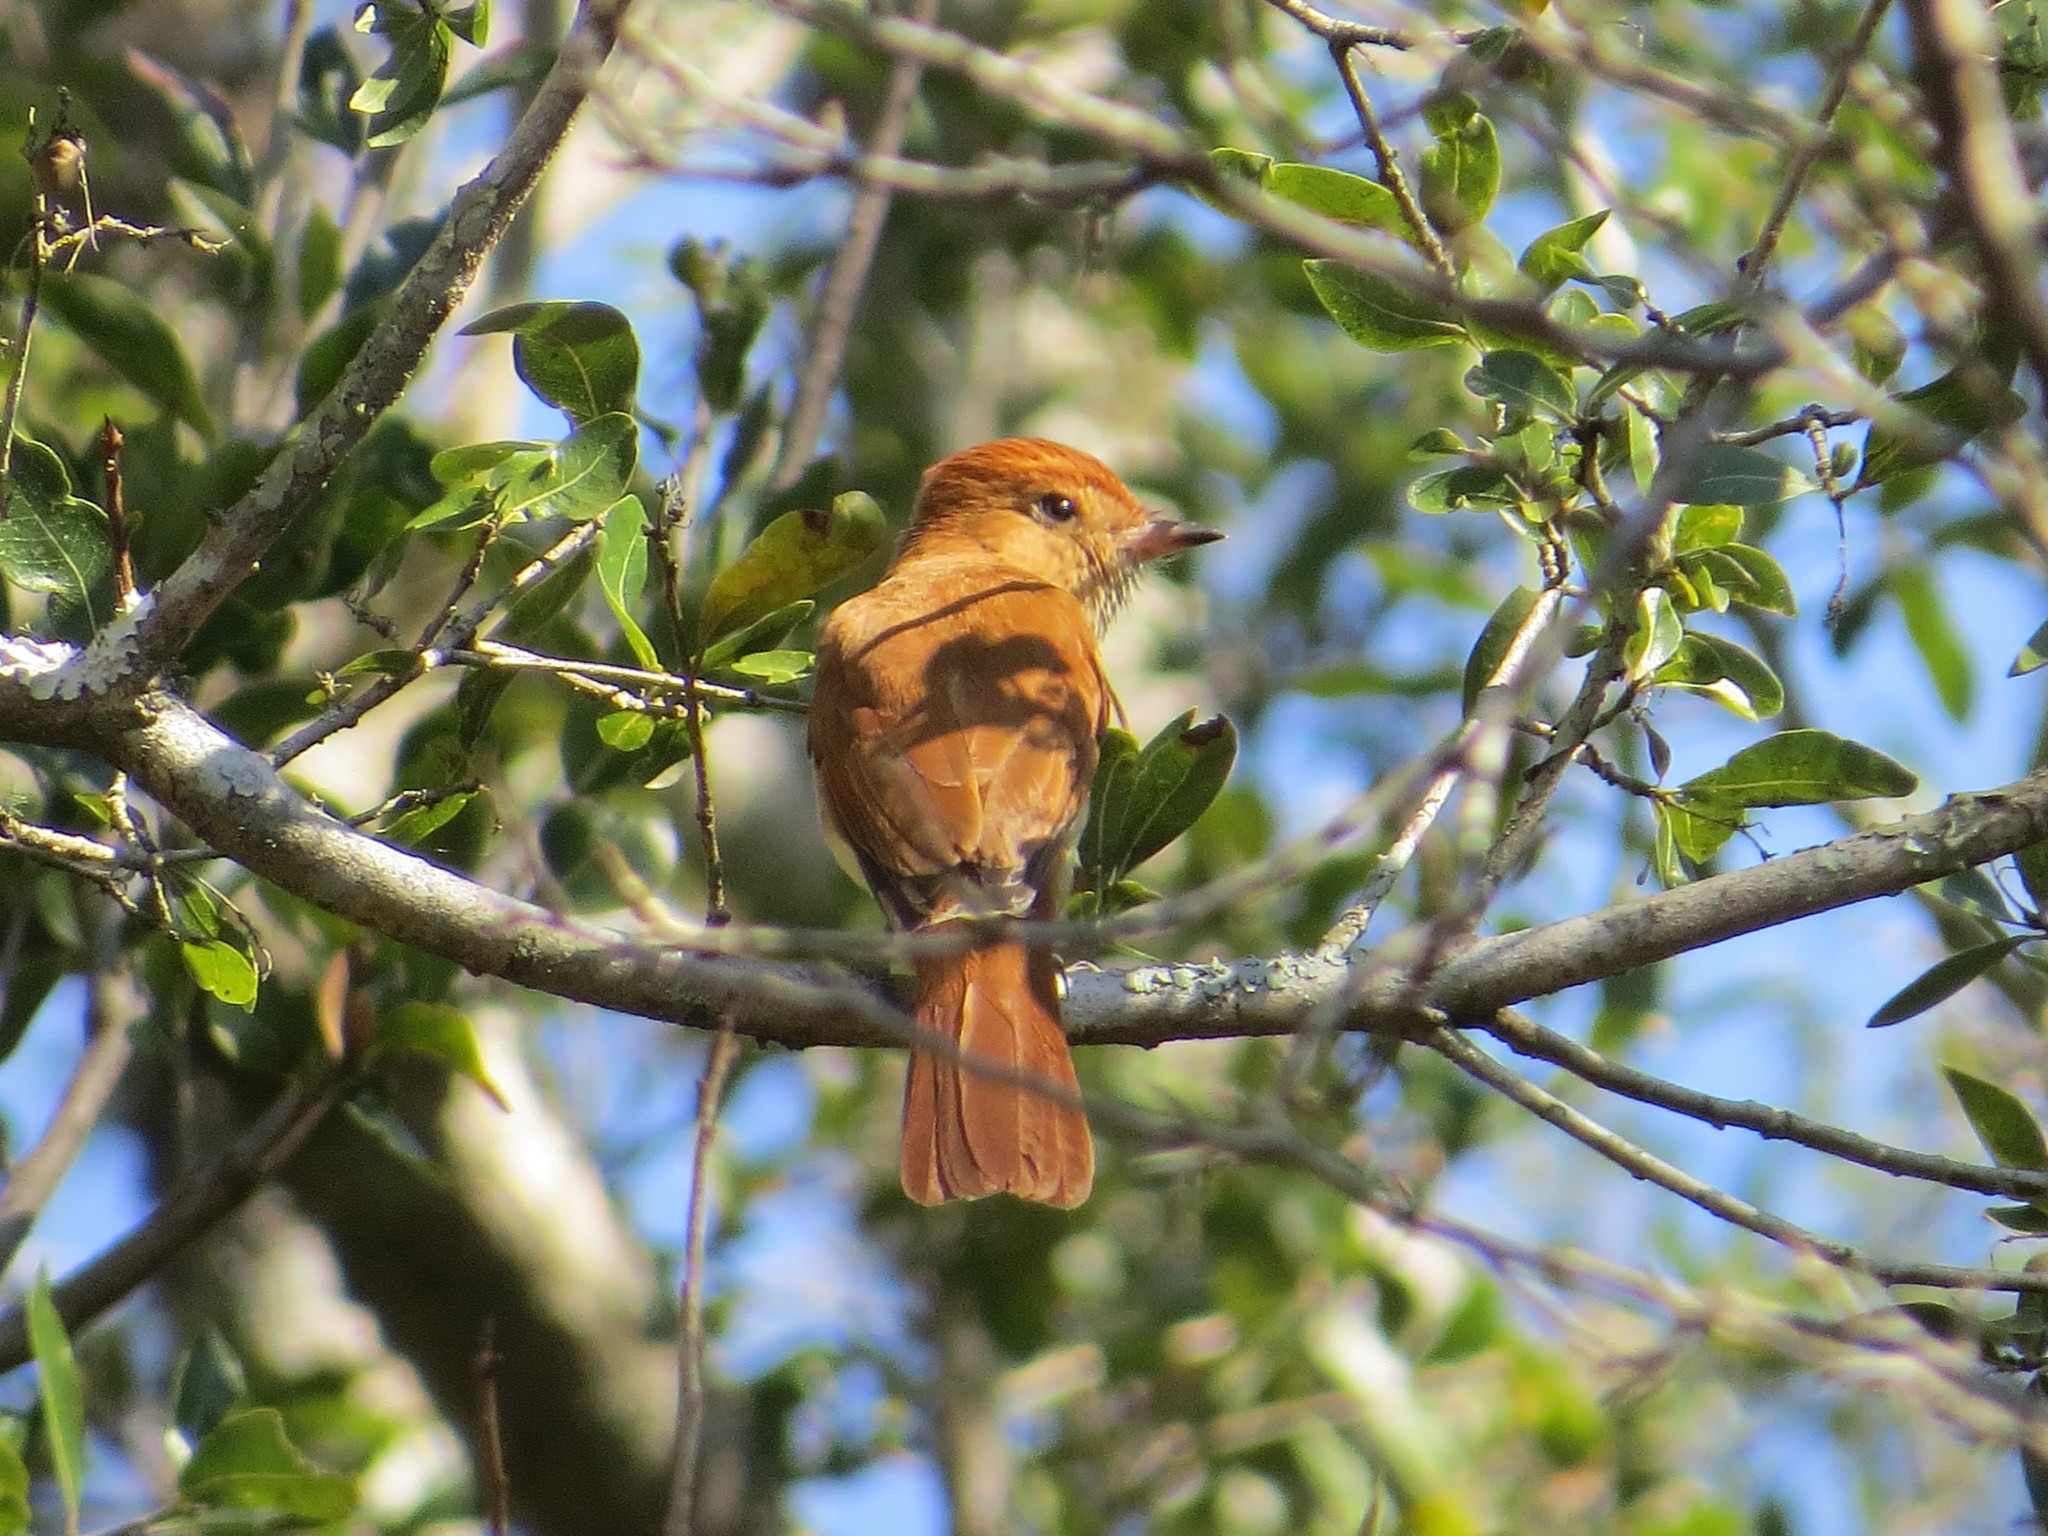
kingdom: Animalia
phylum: Chordata
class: Aves
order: Passeriformes
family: Tyrannidae
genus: Casiornis
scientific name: Casiornis rufus
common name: Rufous casiornis
